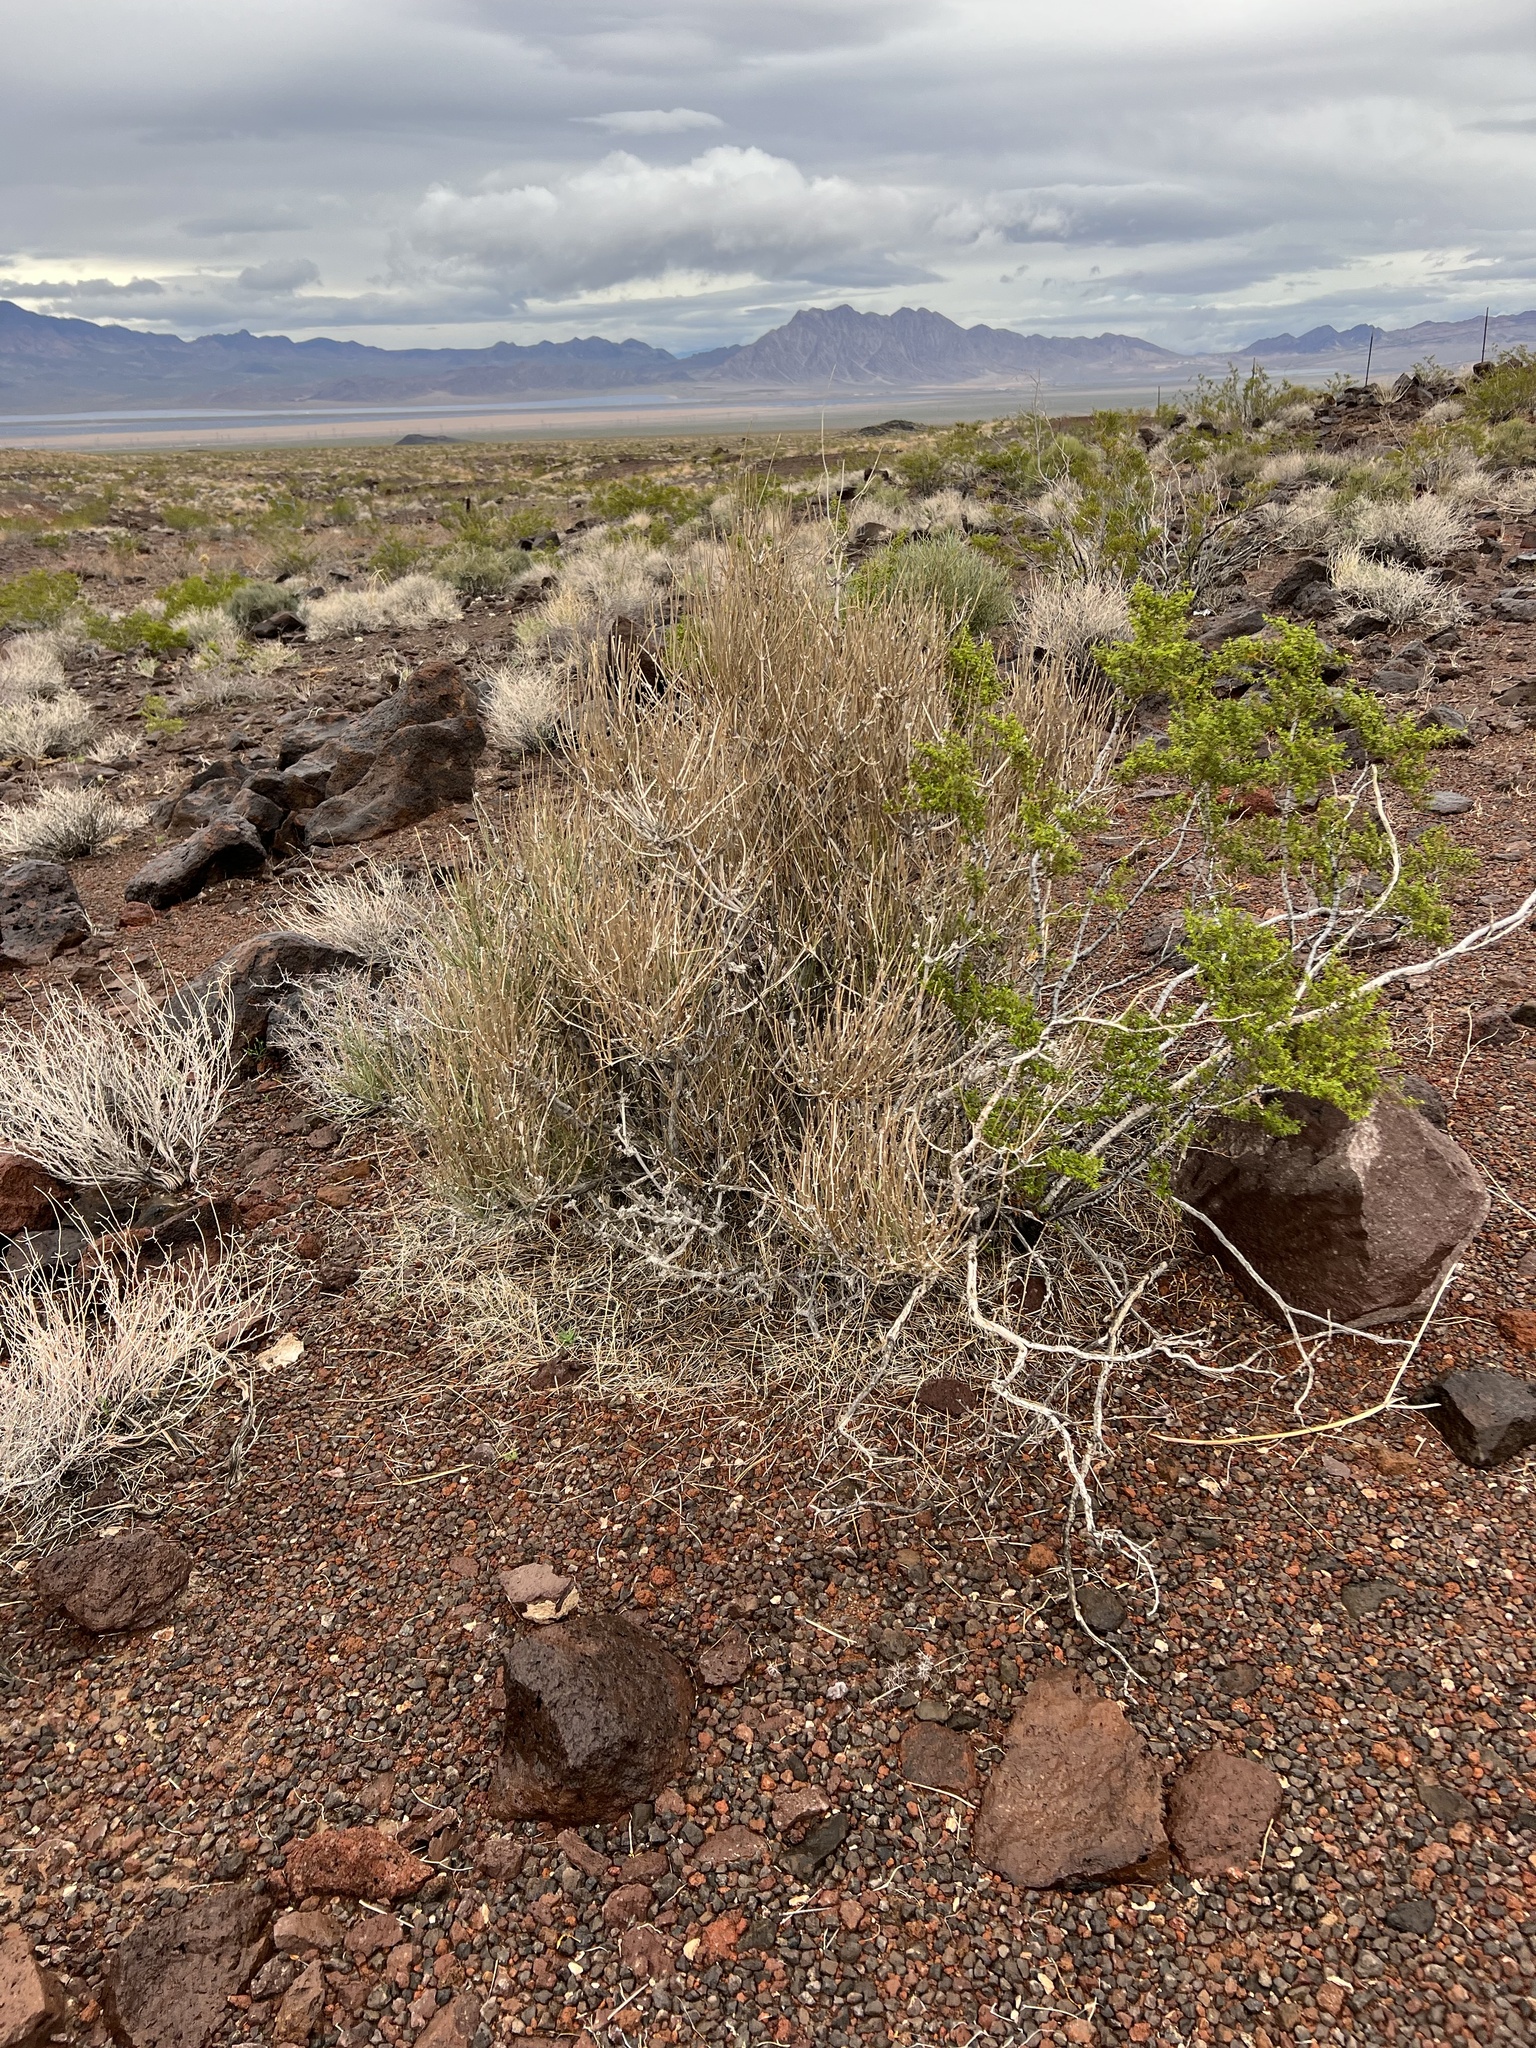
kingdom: Plantae
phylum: Tracheophyta
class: Gnetopsida
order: Ephedrales
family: Ephedraceae
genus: Ephedra
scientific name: Ephedra nevadensis
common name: Gray ephedra
